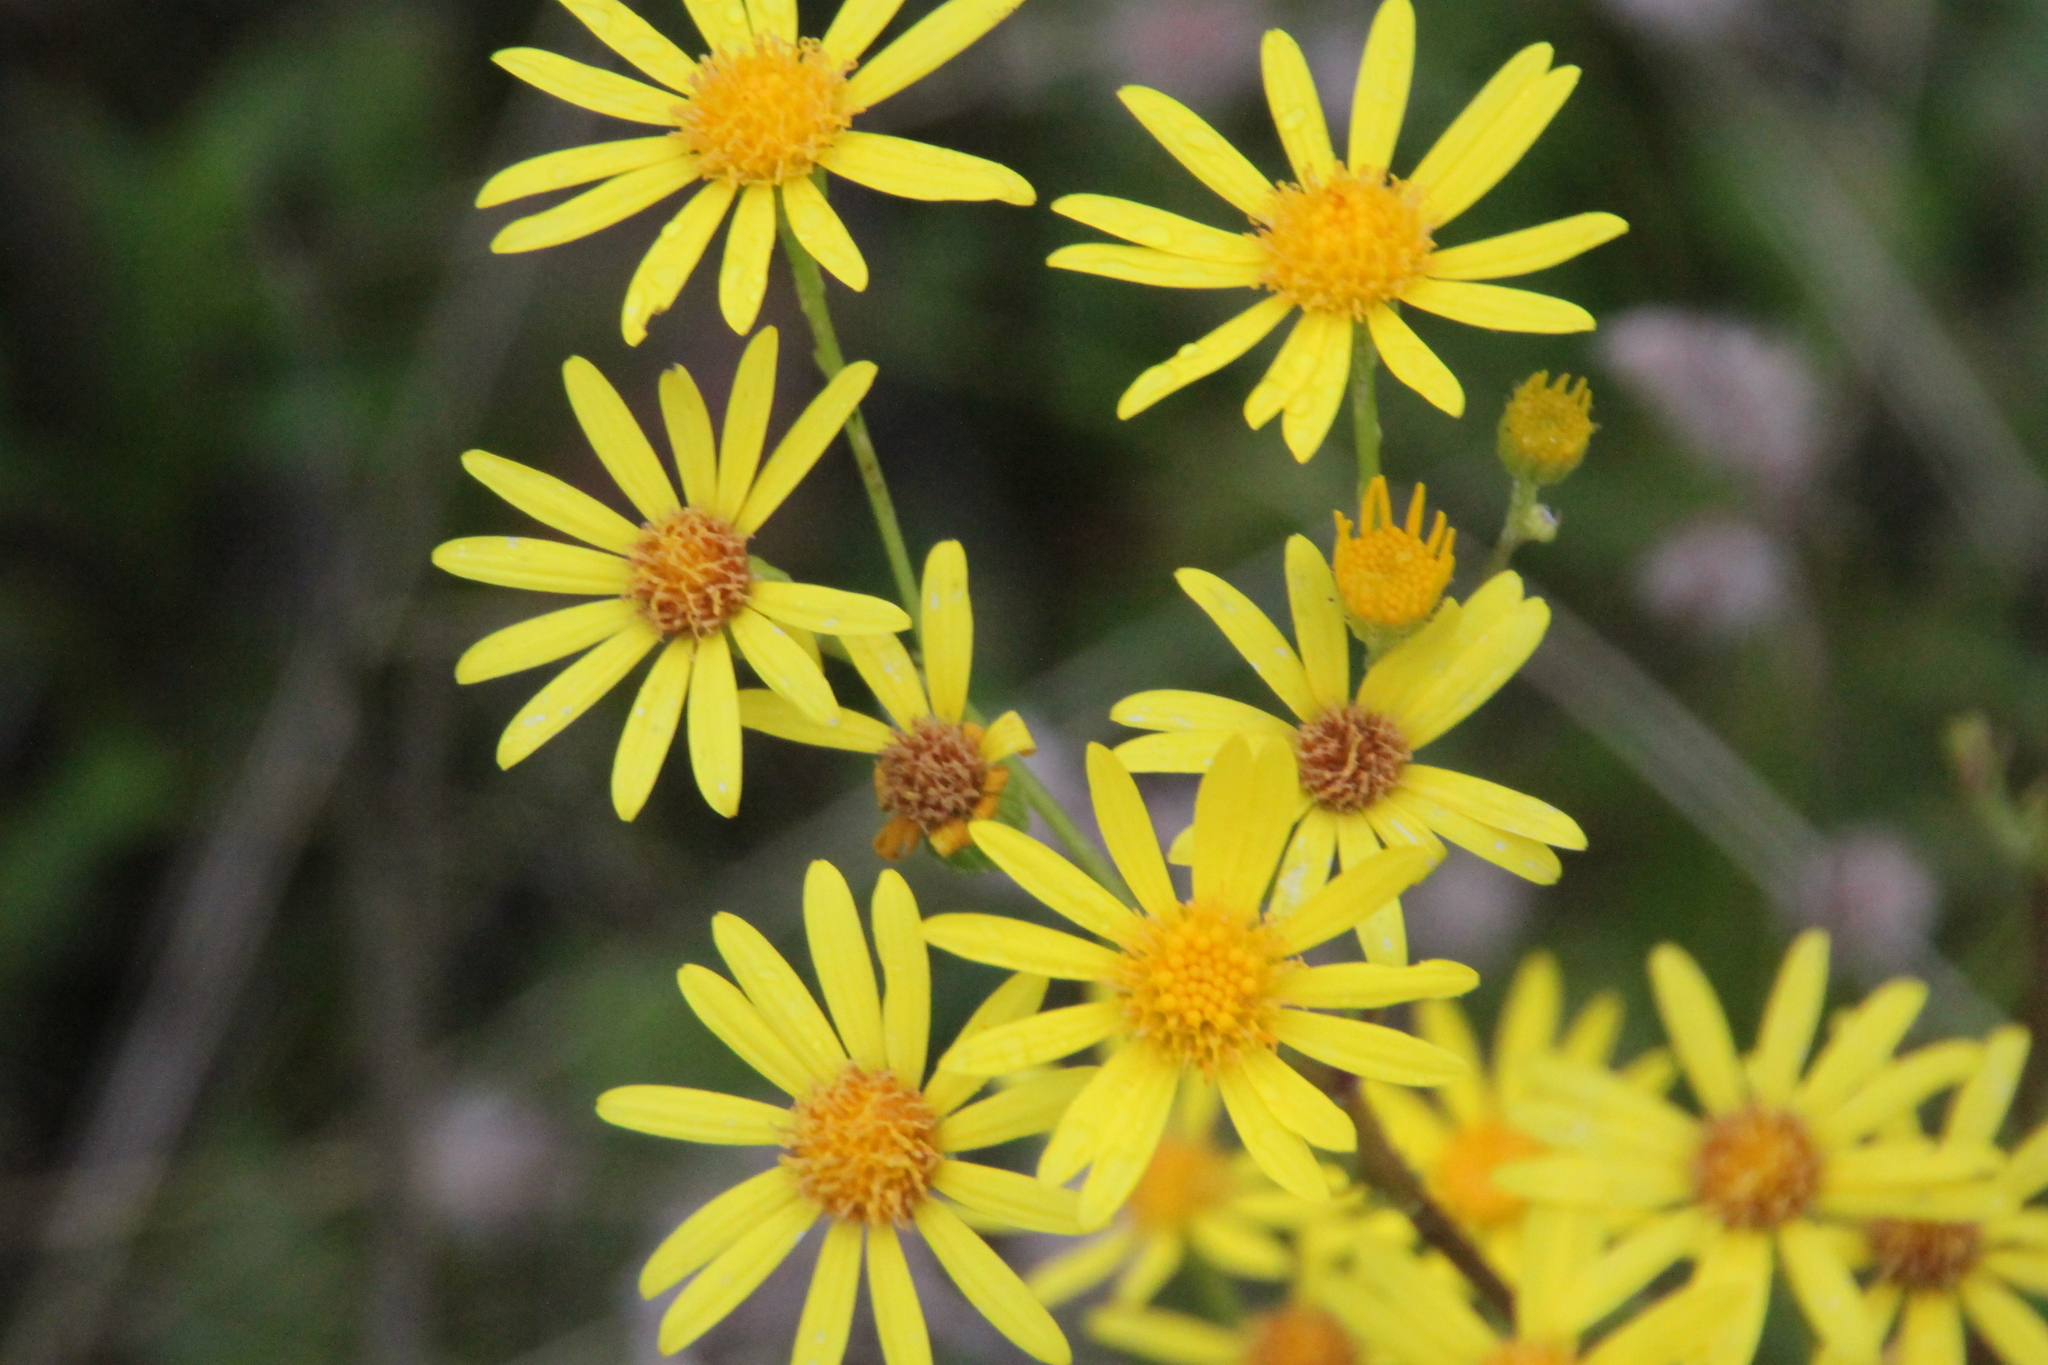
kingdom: Plantae
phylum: Tracheophyta
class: Magnoliopsida
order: Asterales
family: Asteraceae
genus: Jacobaea
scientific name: Jacobaea vulgaris
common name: Stinking willie
